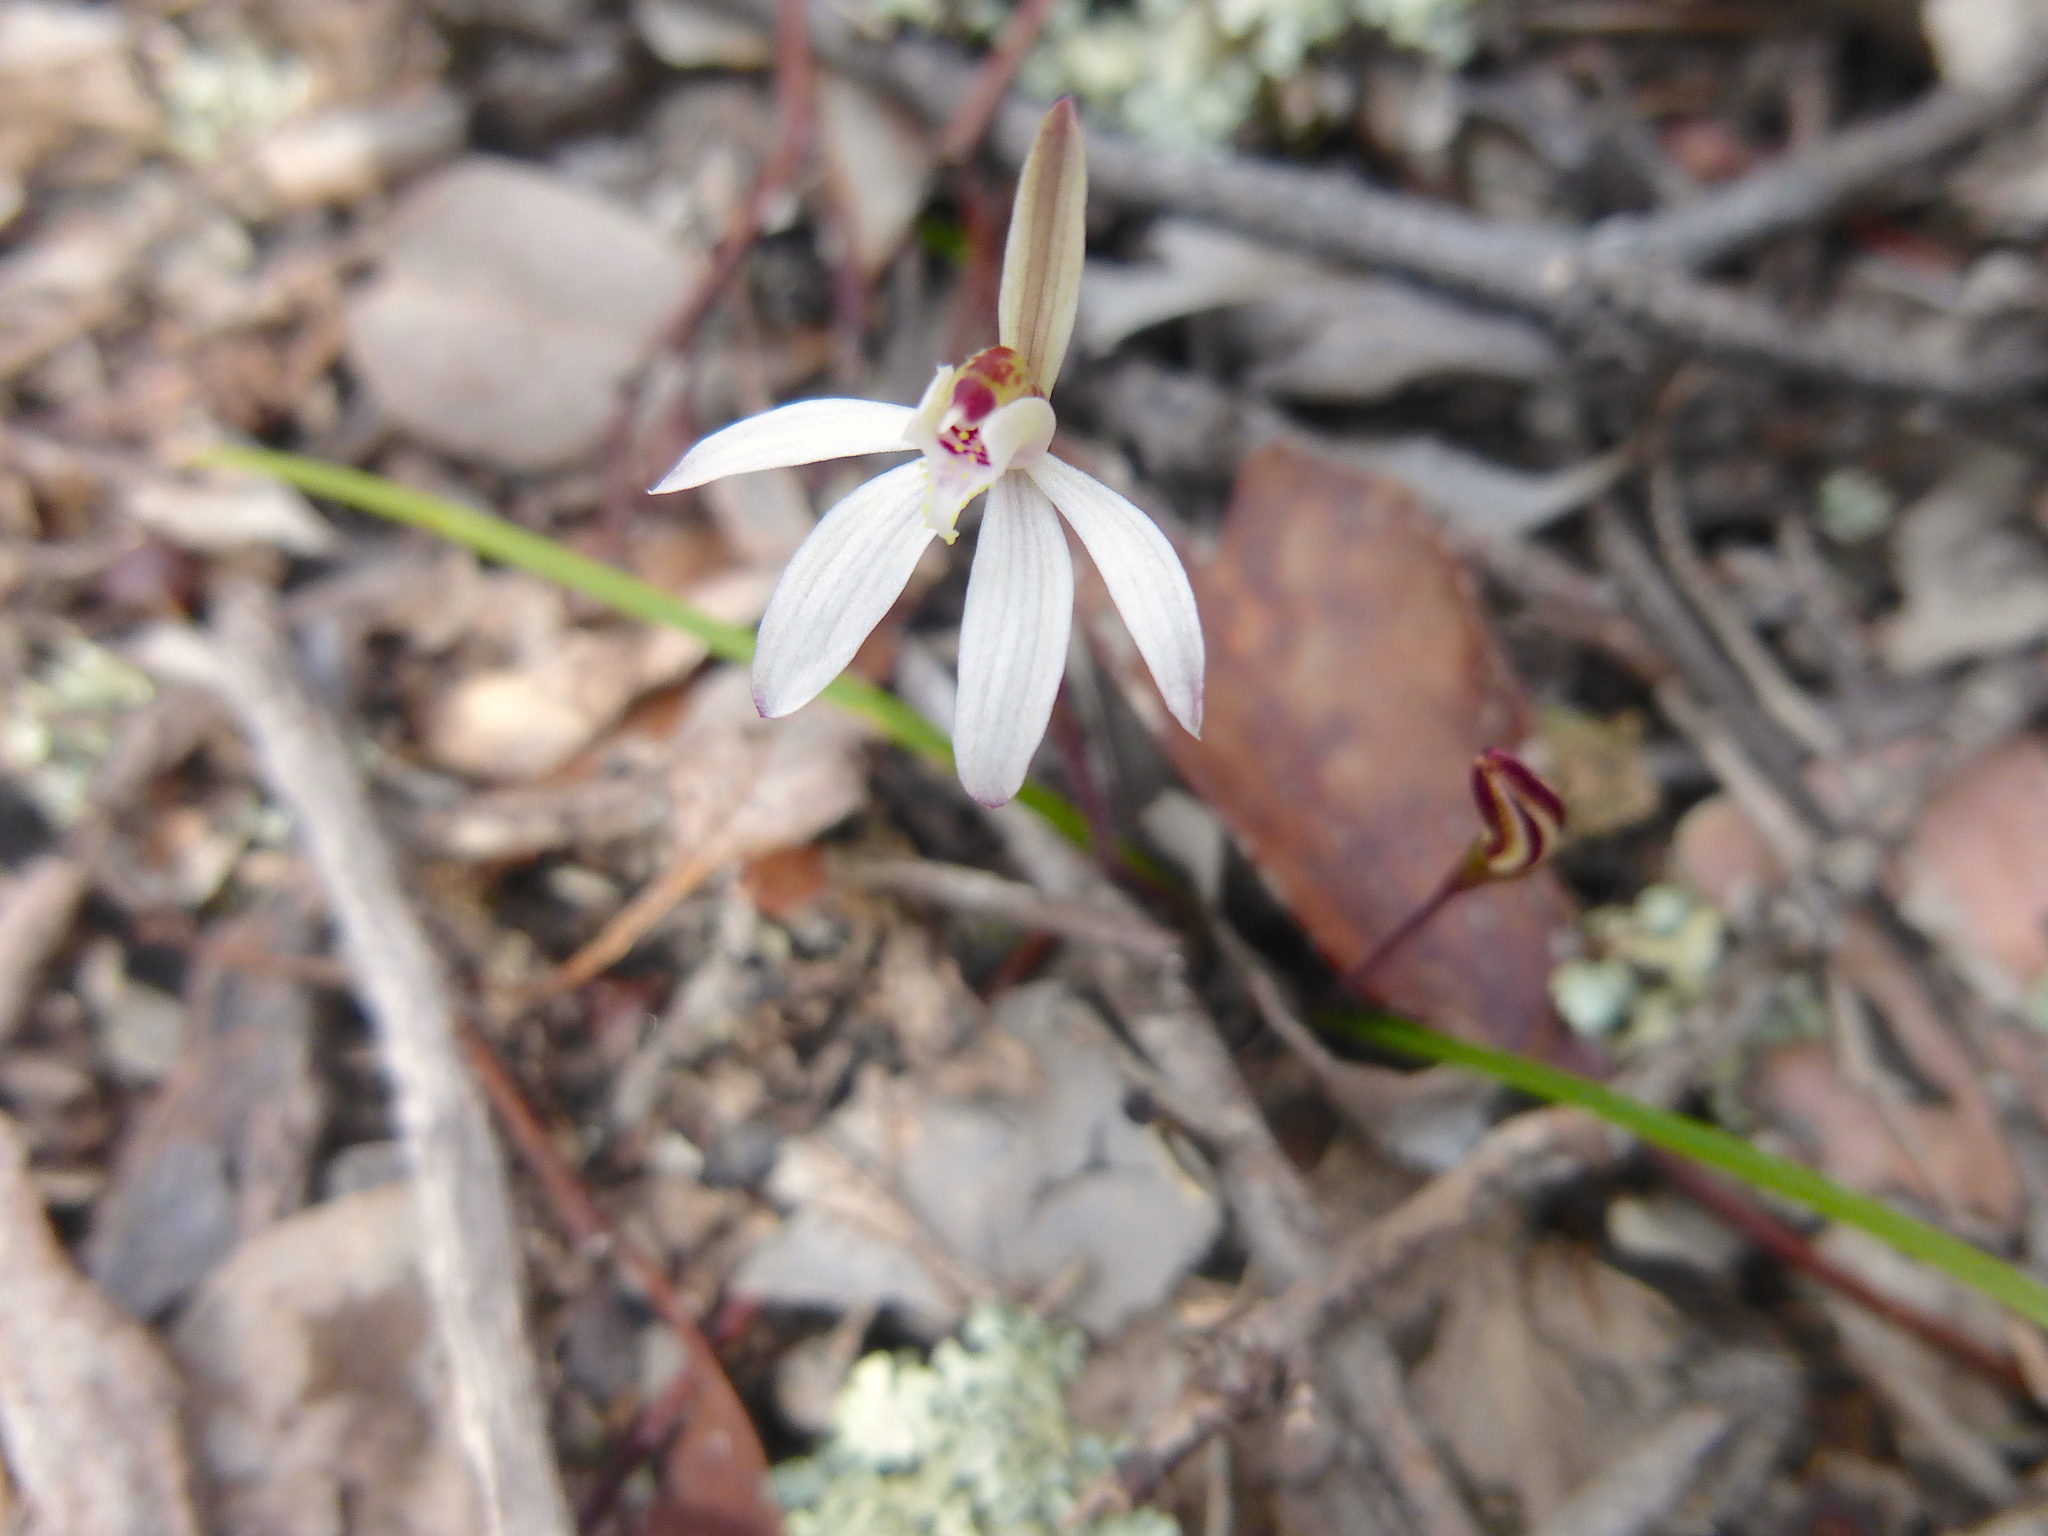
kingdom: Plantae
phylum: Tracheophyta
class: Liliopsida
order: Asparagales
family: Orchidaceae
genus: Caladenia
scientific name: Caladenia fuscata
